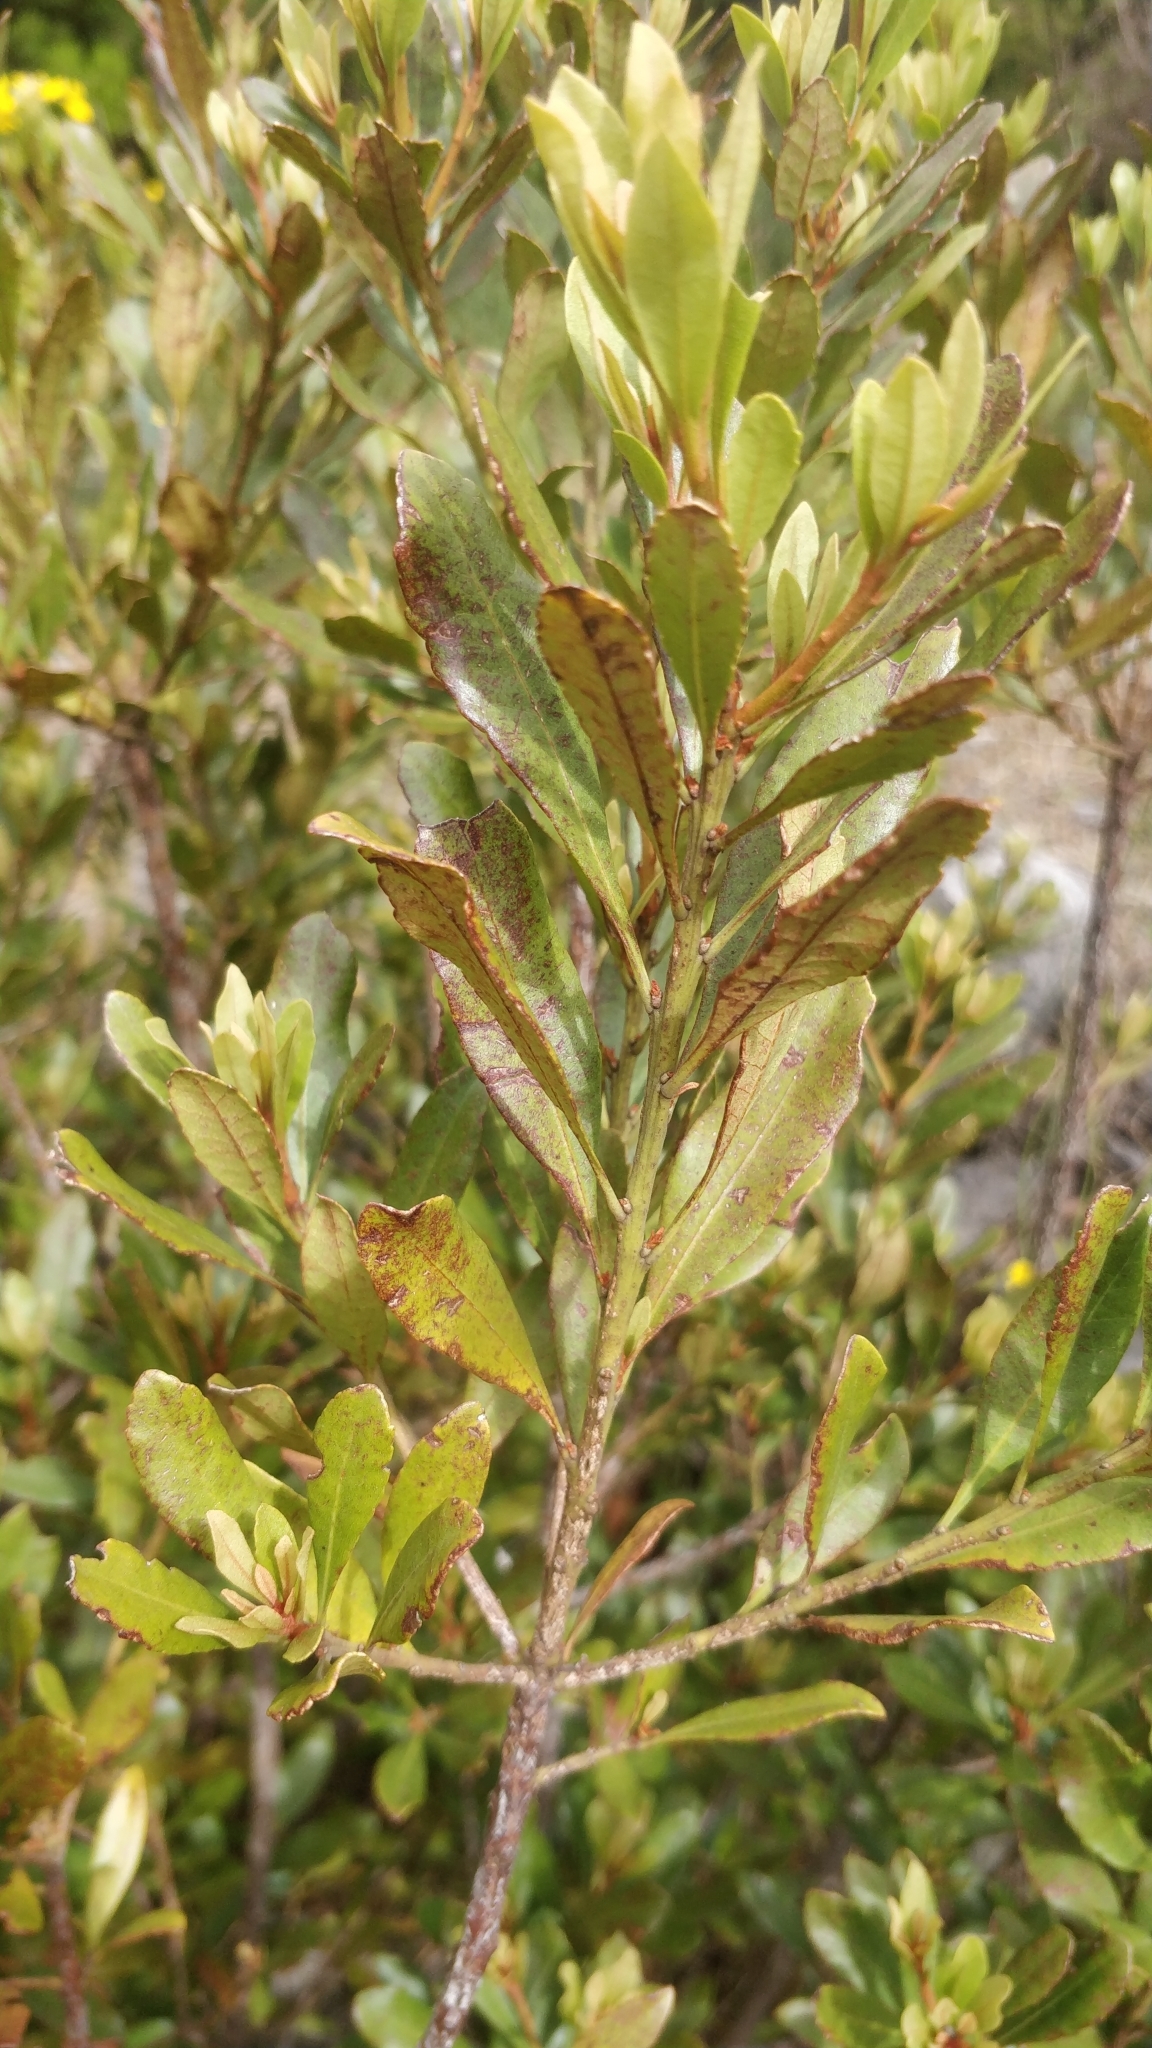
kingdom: Plantae
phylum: Tracheophyta
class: Magnoliopsida
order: Fagales
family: Myricaceae
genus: Morella
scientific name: Morella faya
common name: Firetree
